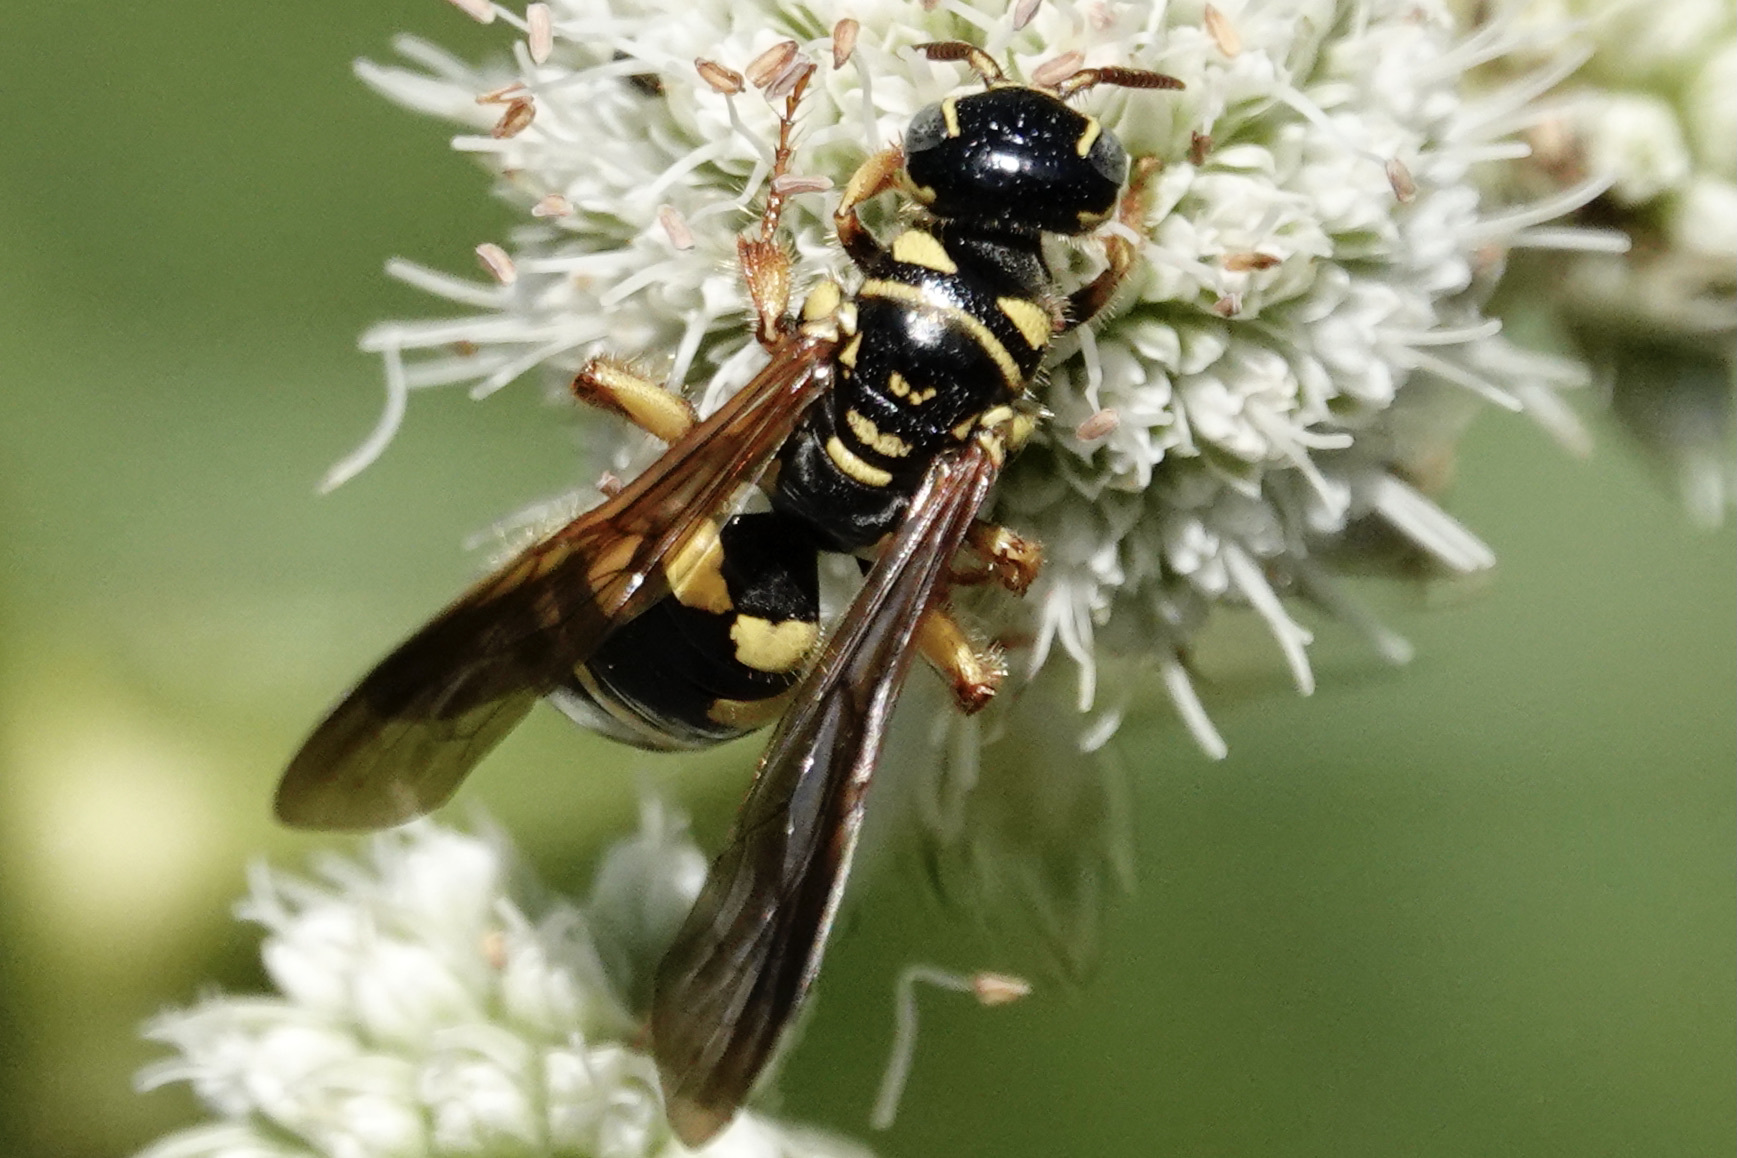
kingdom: Animalia
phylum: Arthropoda
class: Insecta
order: Hymenoptera
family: Tiphiidae
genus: Myzinum
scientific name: Myzinum quinquecinctum
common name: Five-banded thynnid wasp
